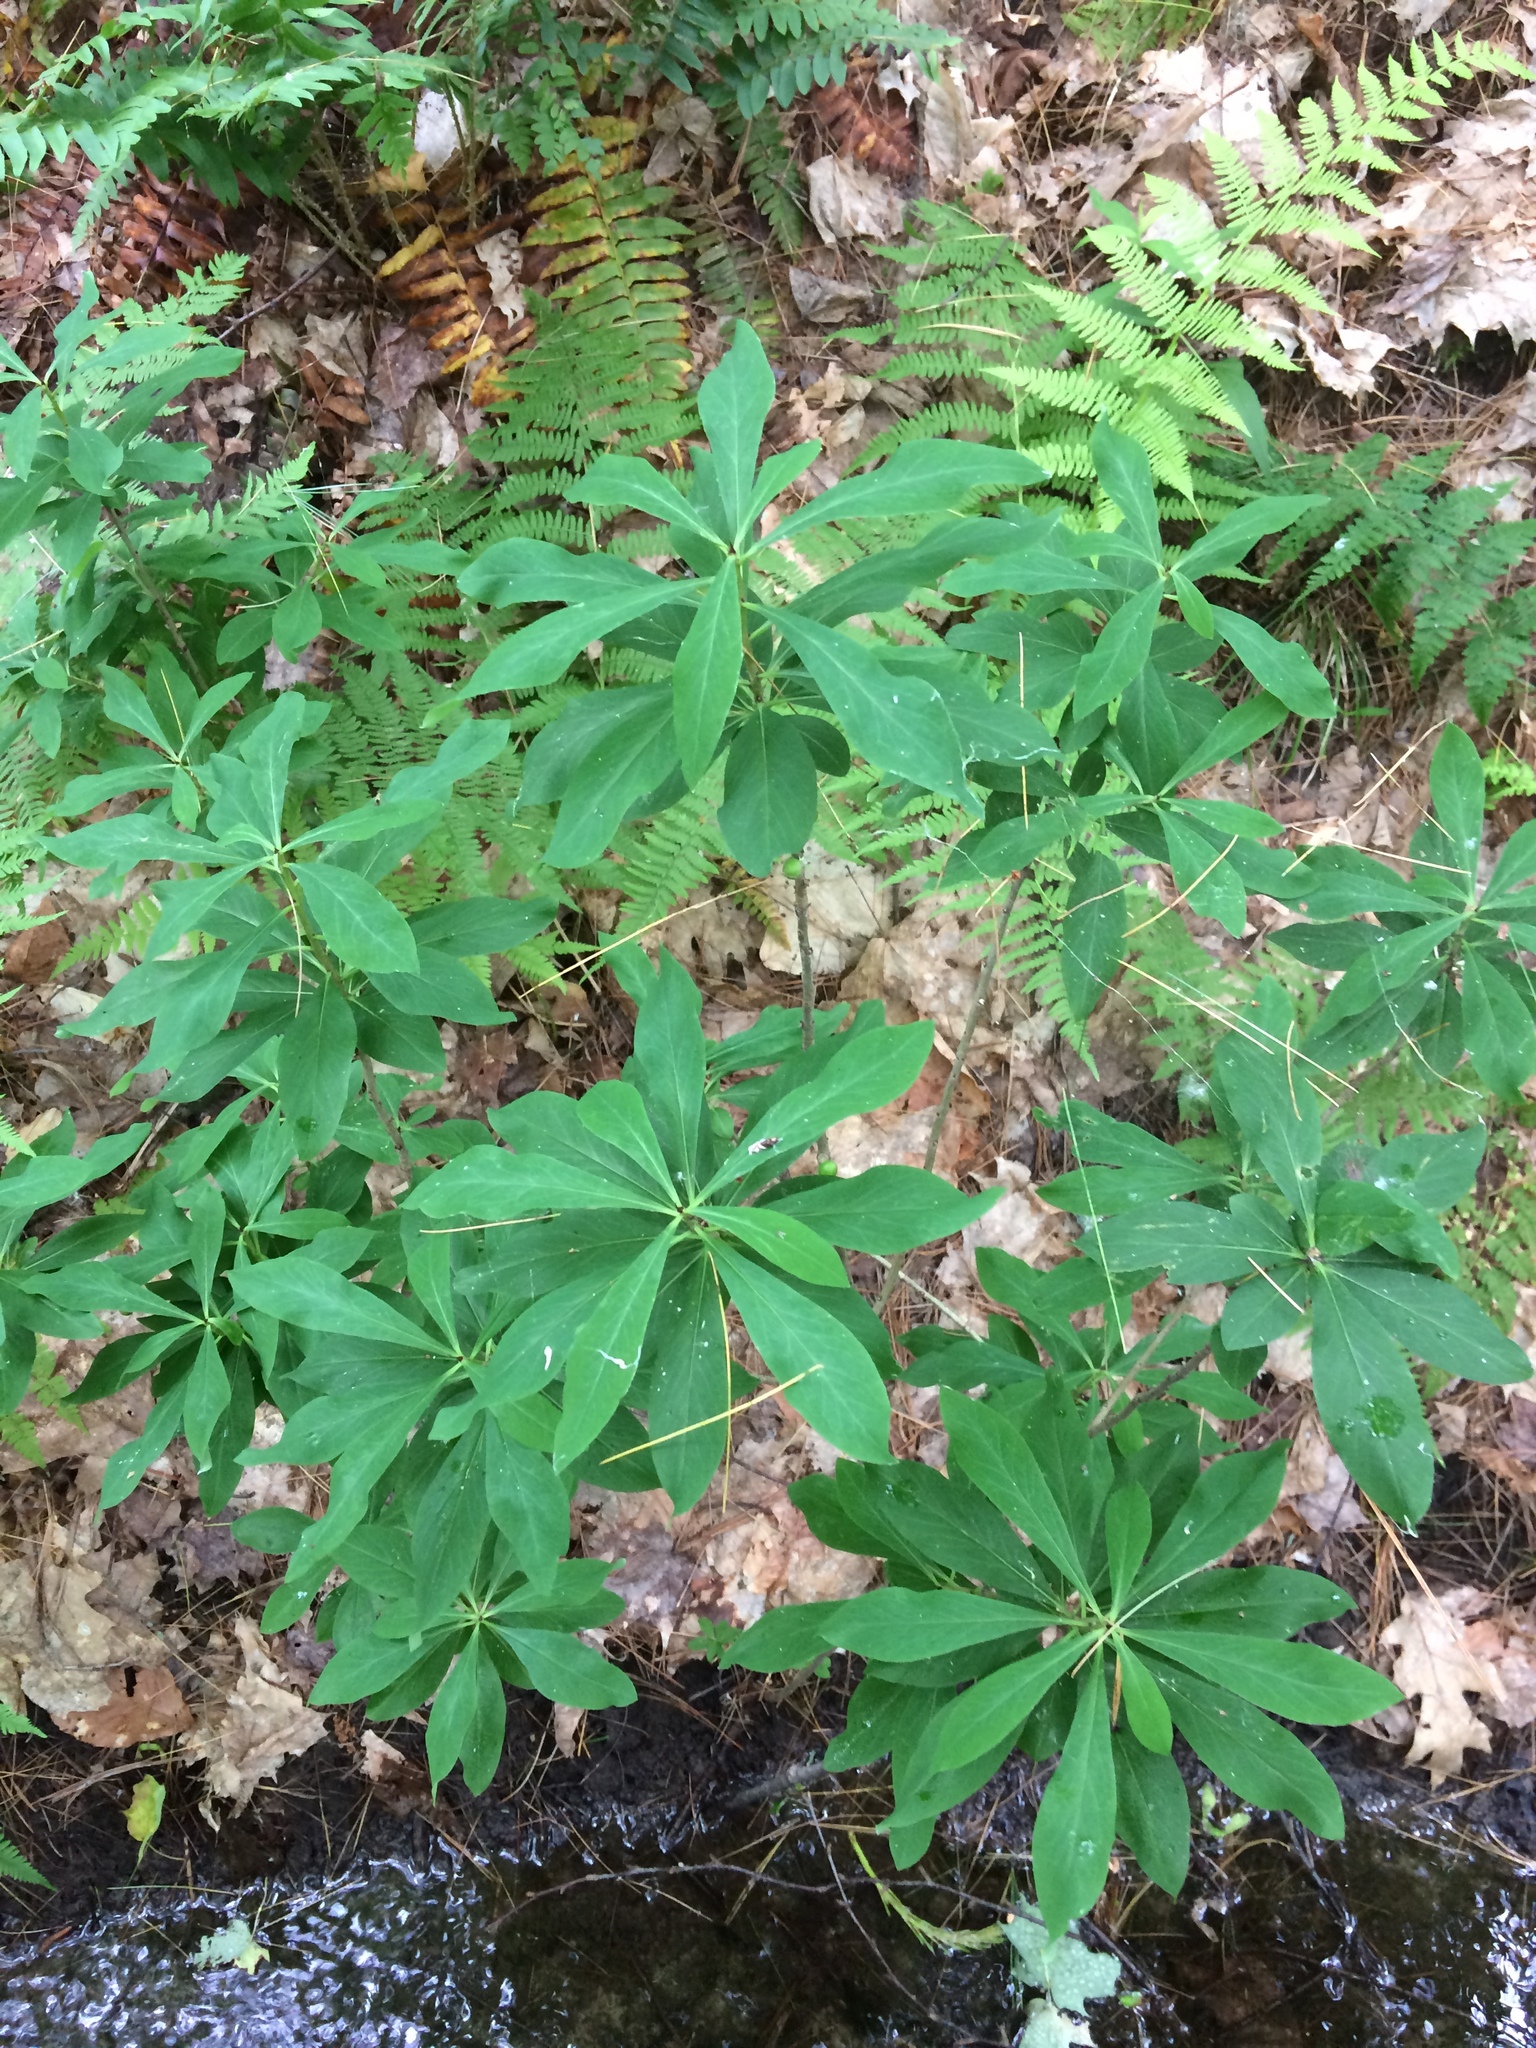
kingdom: Plantae
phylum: Tracheophyta
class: Magnoliopsida
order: Malvales
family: Thymelaeaceae
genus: Daphne
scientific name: Daphne mezereum
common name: Mezereon
